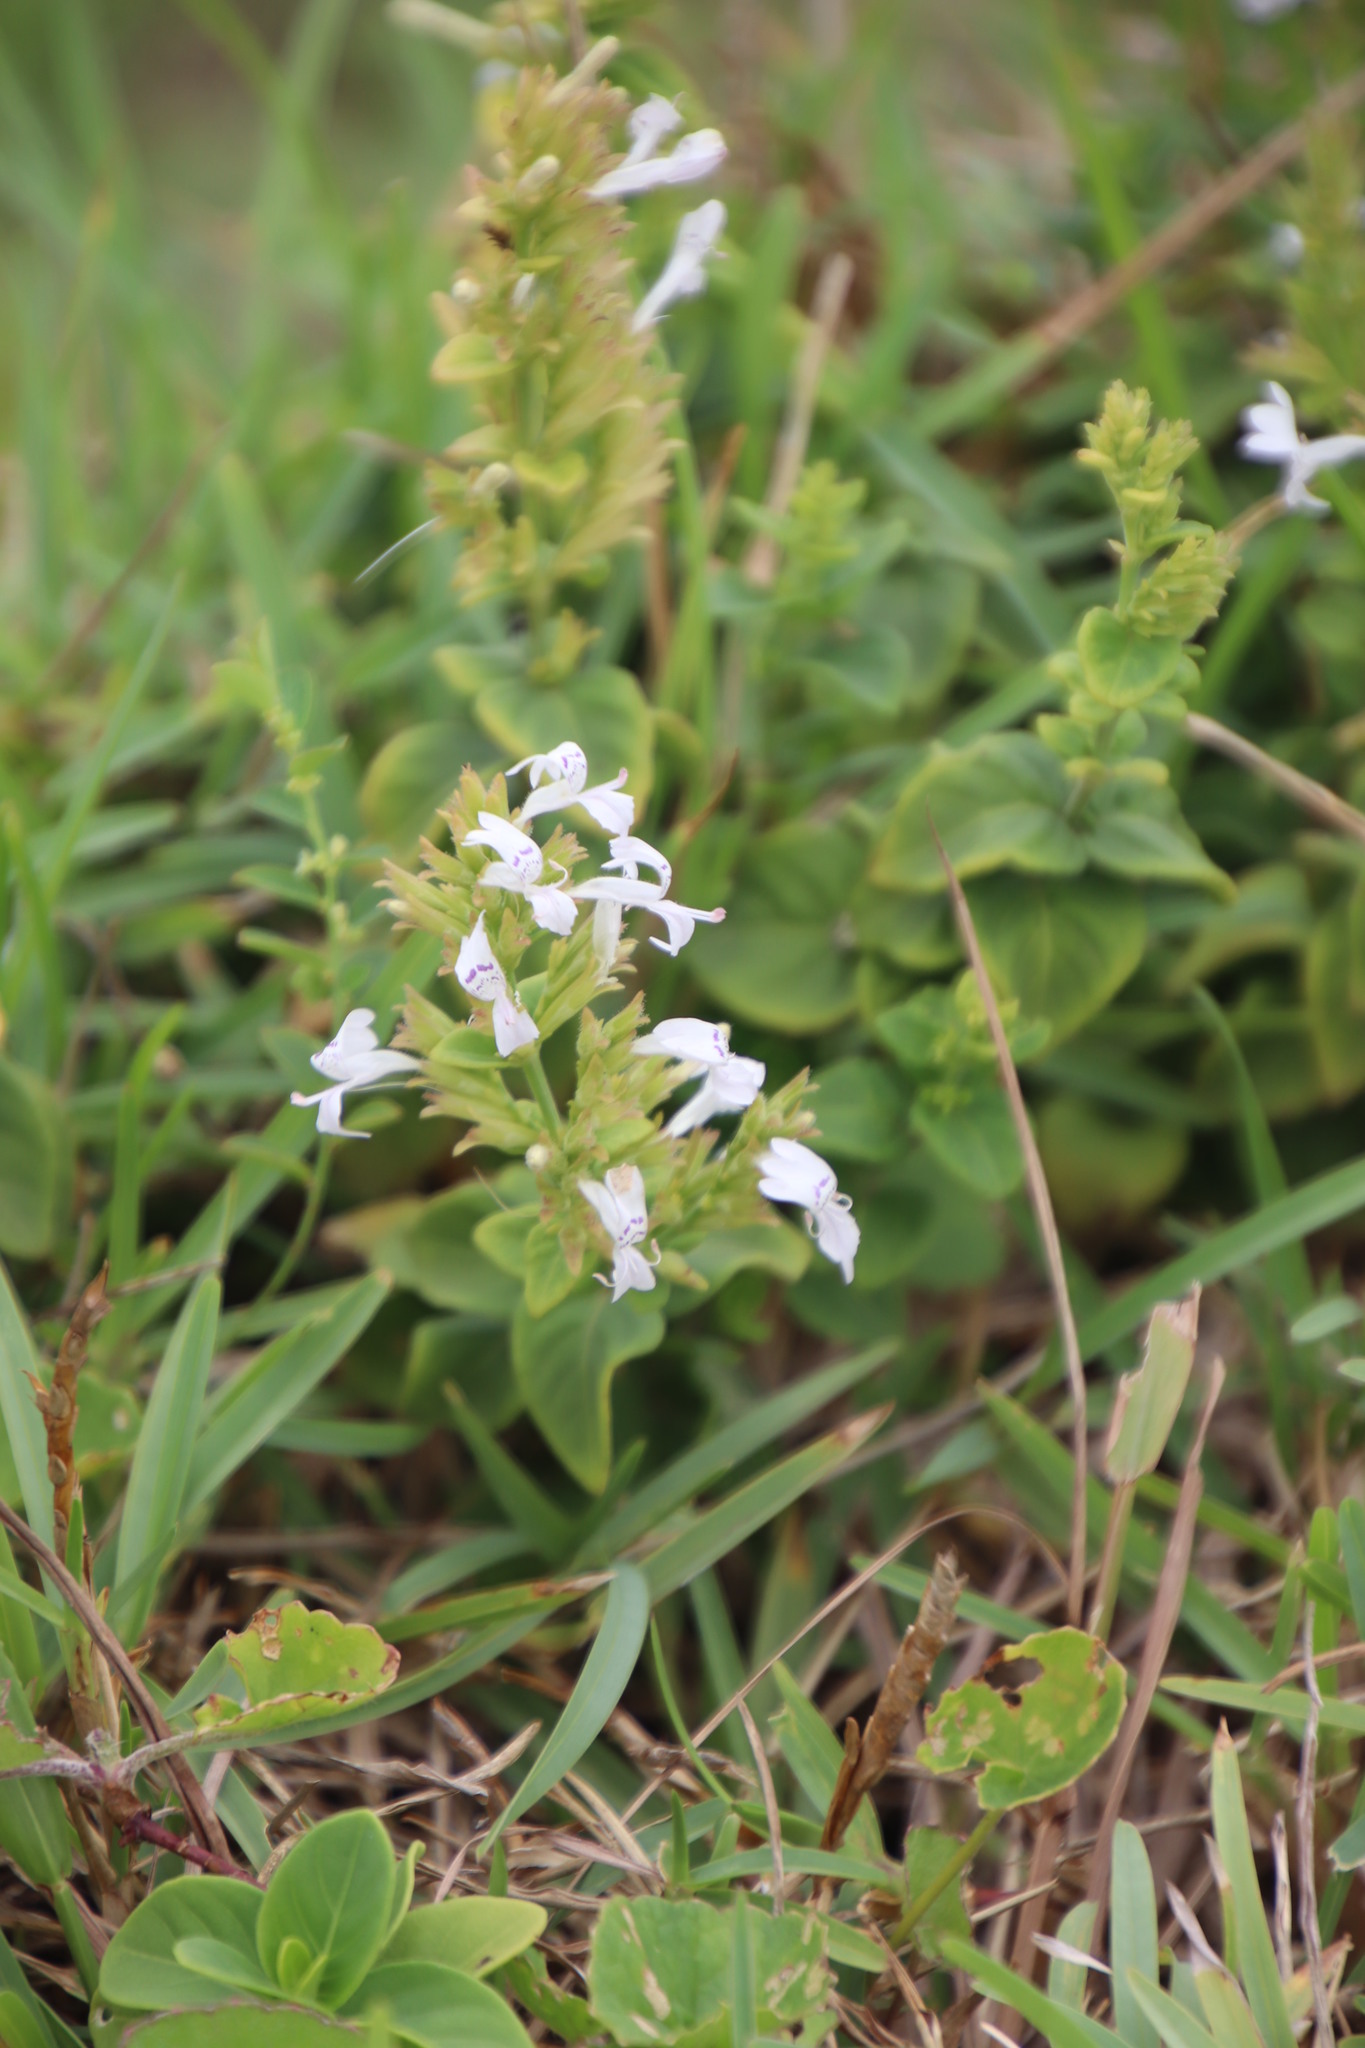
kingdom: Plantae
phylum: Tracheophyta
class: Magnoliopsida
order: Lamiales
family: Acanthaceae
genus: Hypoestes
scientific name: Hypoestes forskaolii
